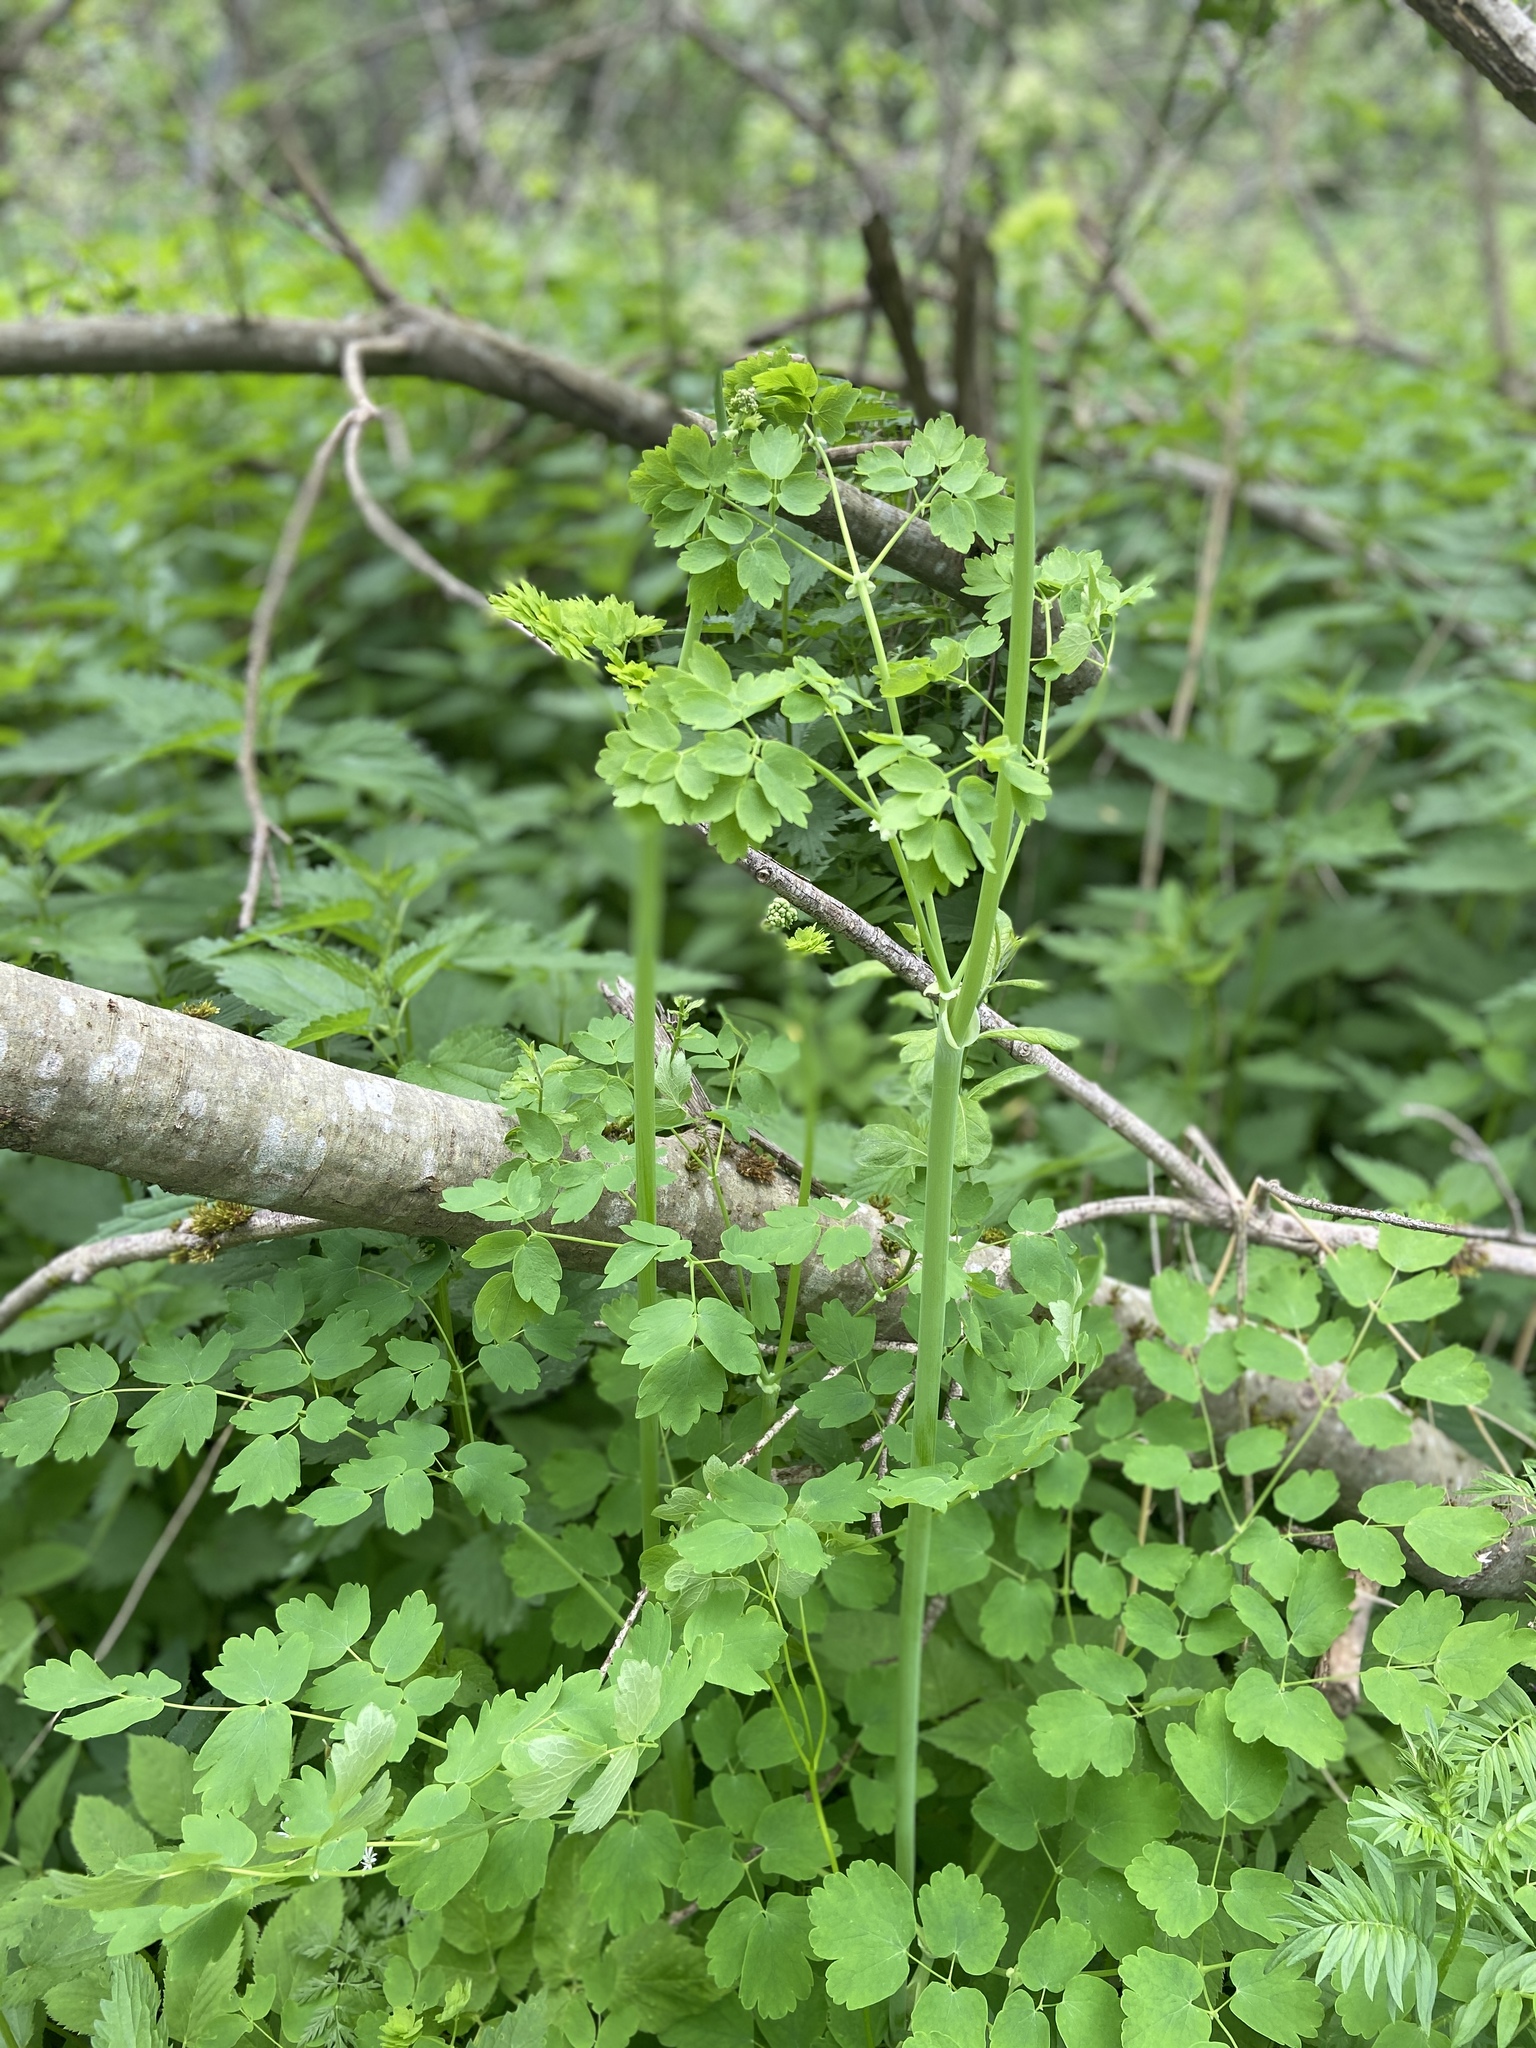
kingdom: Plantae
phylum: Tracheophyta
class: Magnoliopsida
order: Ranunculales
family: Ranunculaceae
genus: Thalictrum
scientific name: Thalictrum aquilegiifolium
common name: French meadow-rue
